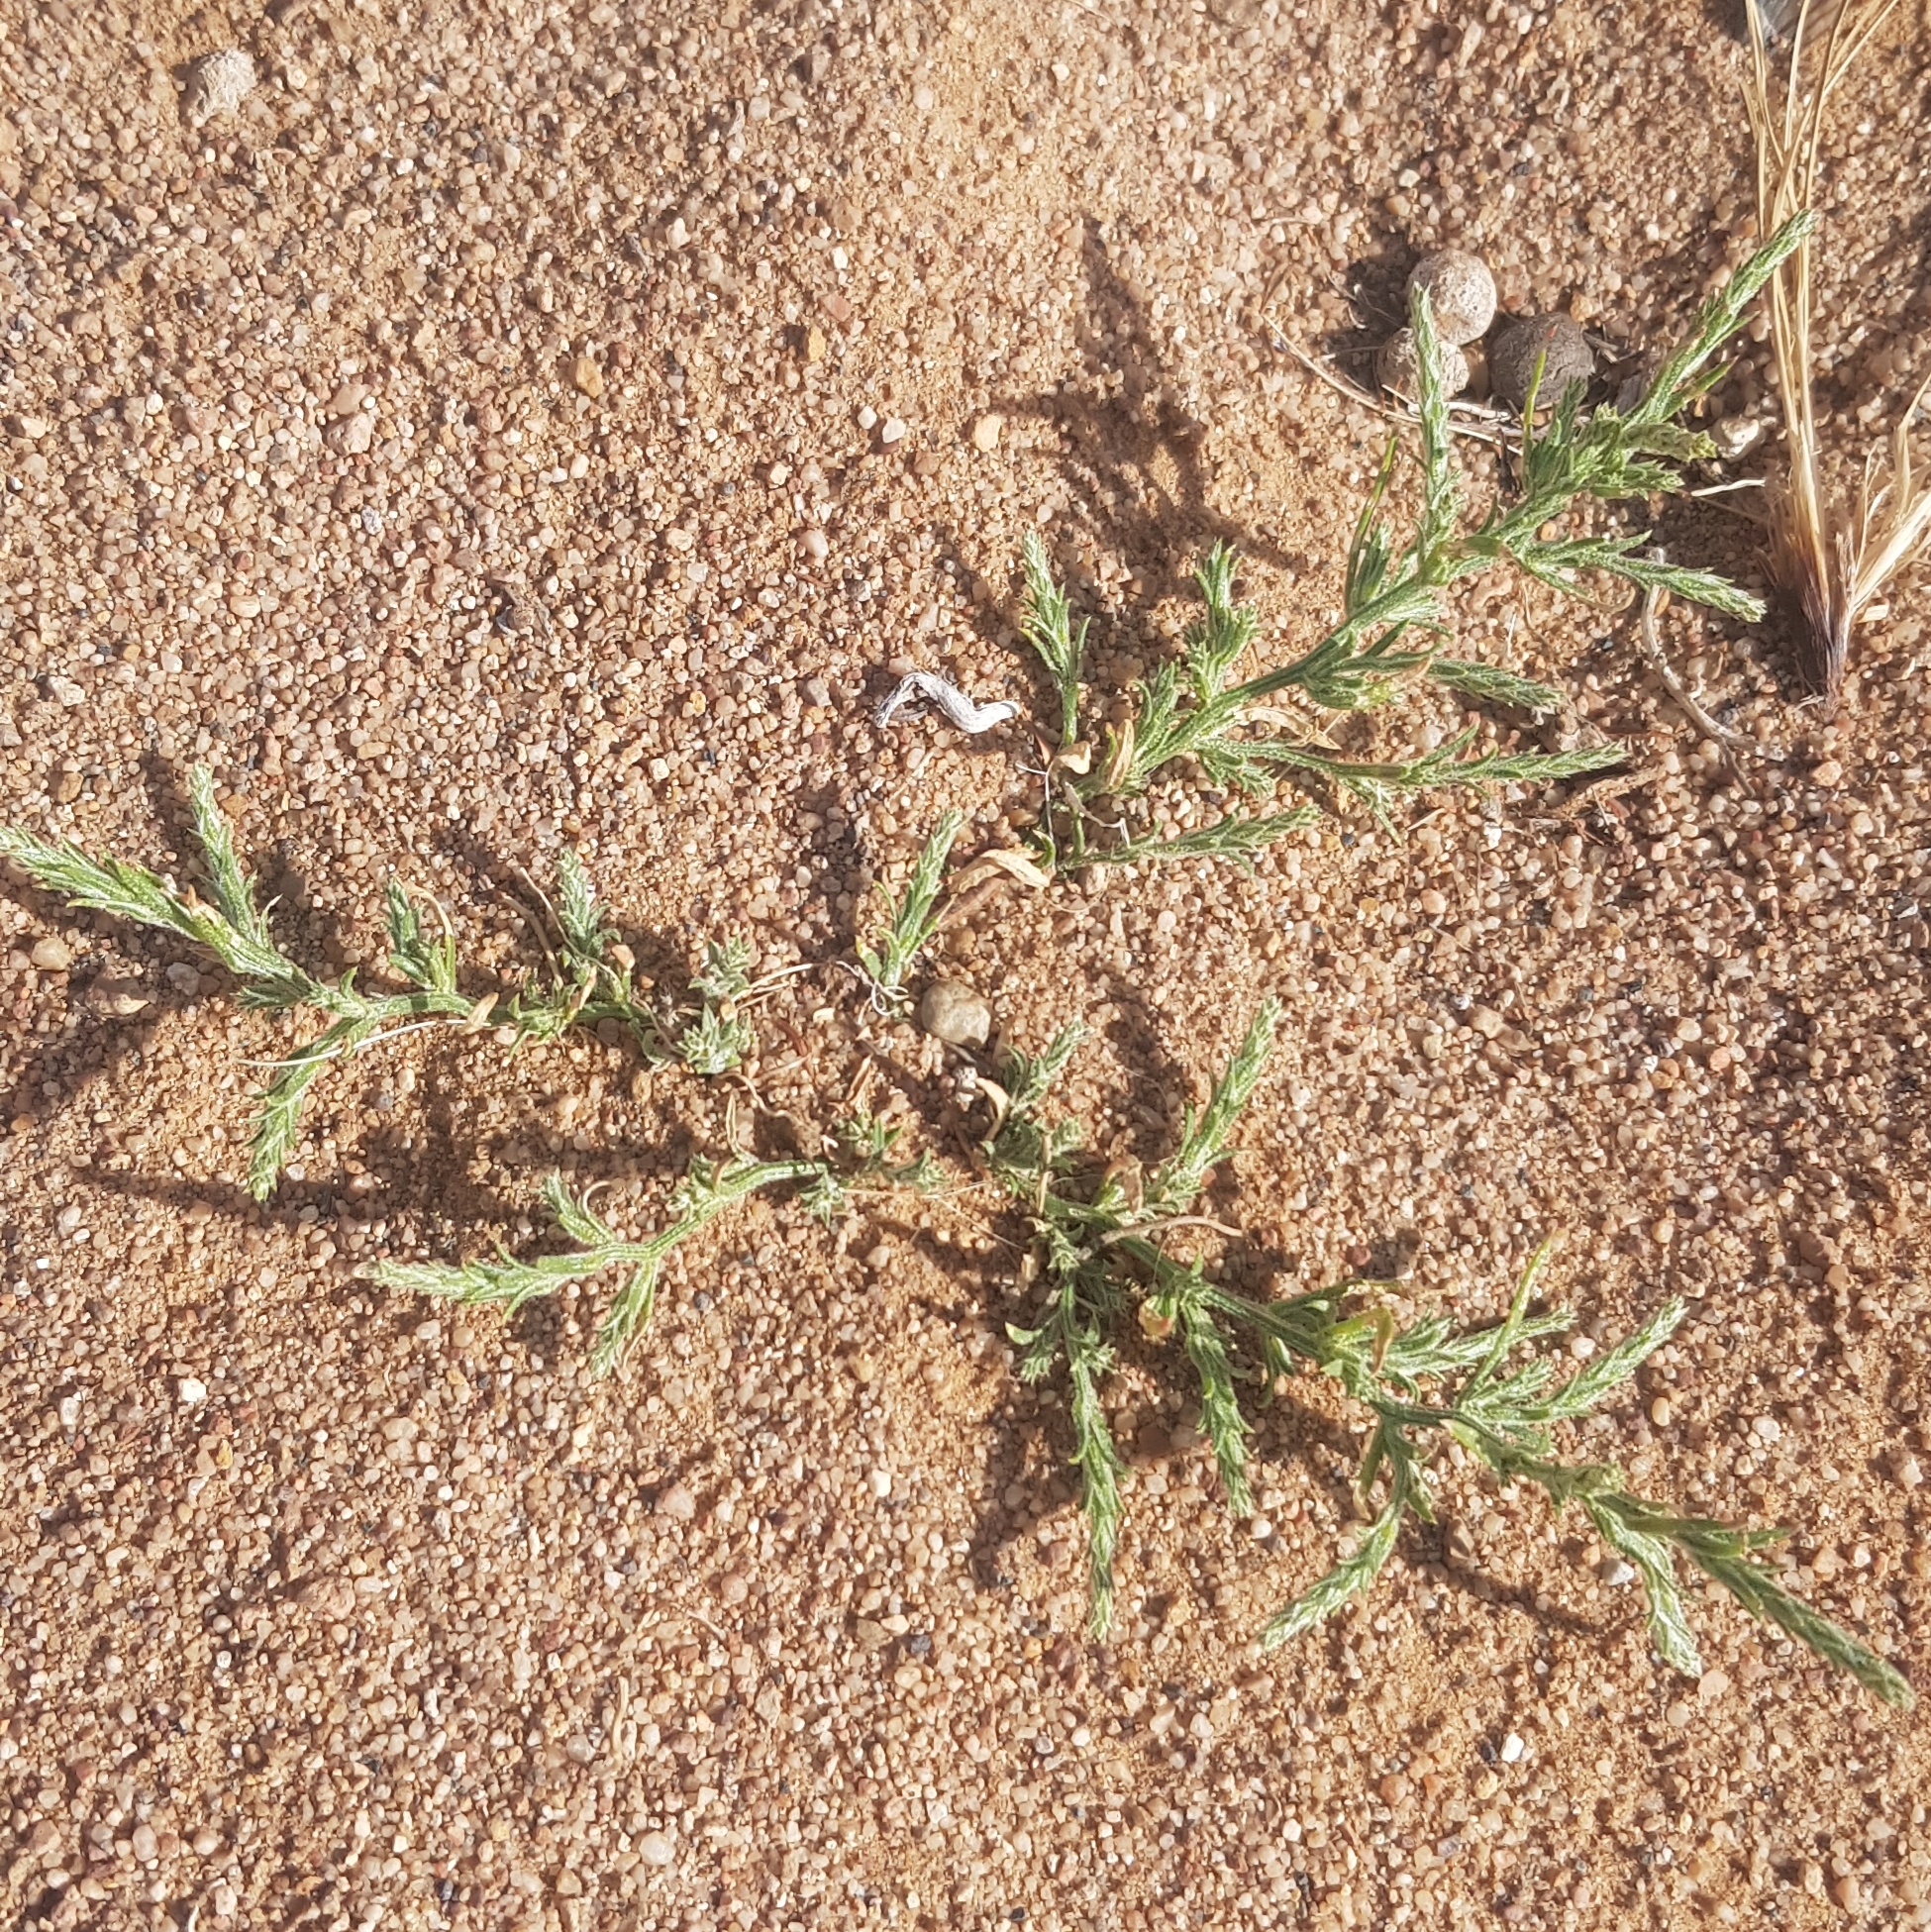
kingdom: Plantae
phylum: Tracheophyta
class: Magnoliopsida
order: Caryophyllales
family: Amaranthaceae
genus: Corispermum
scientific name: Corispermum aralocaspicum
